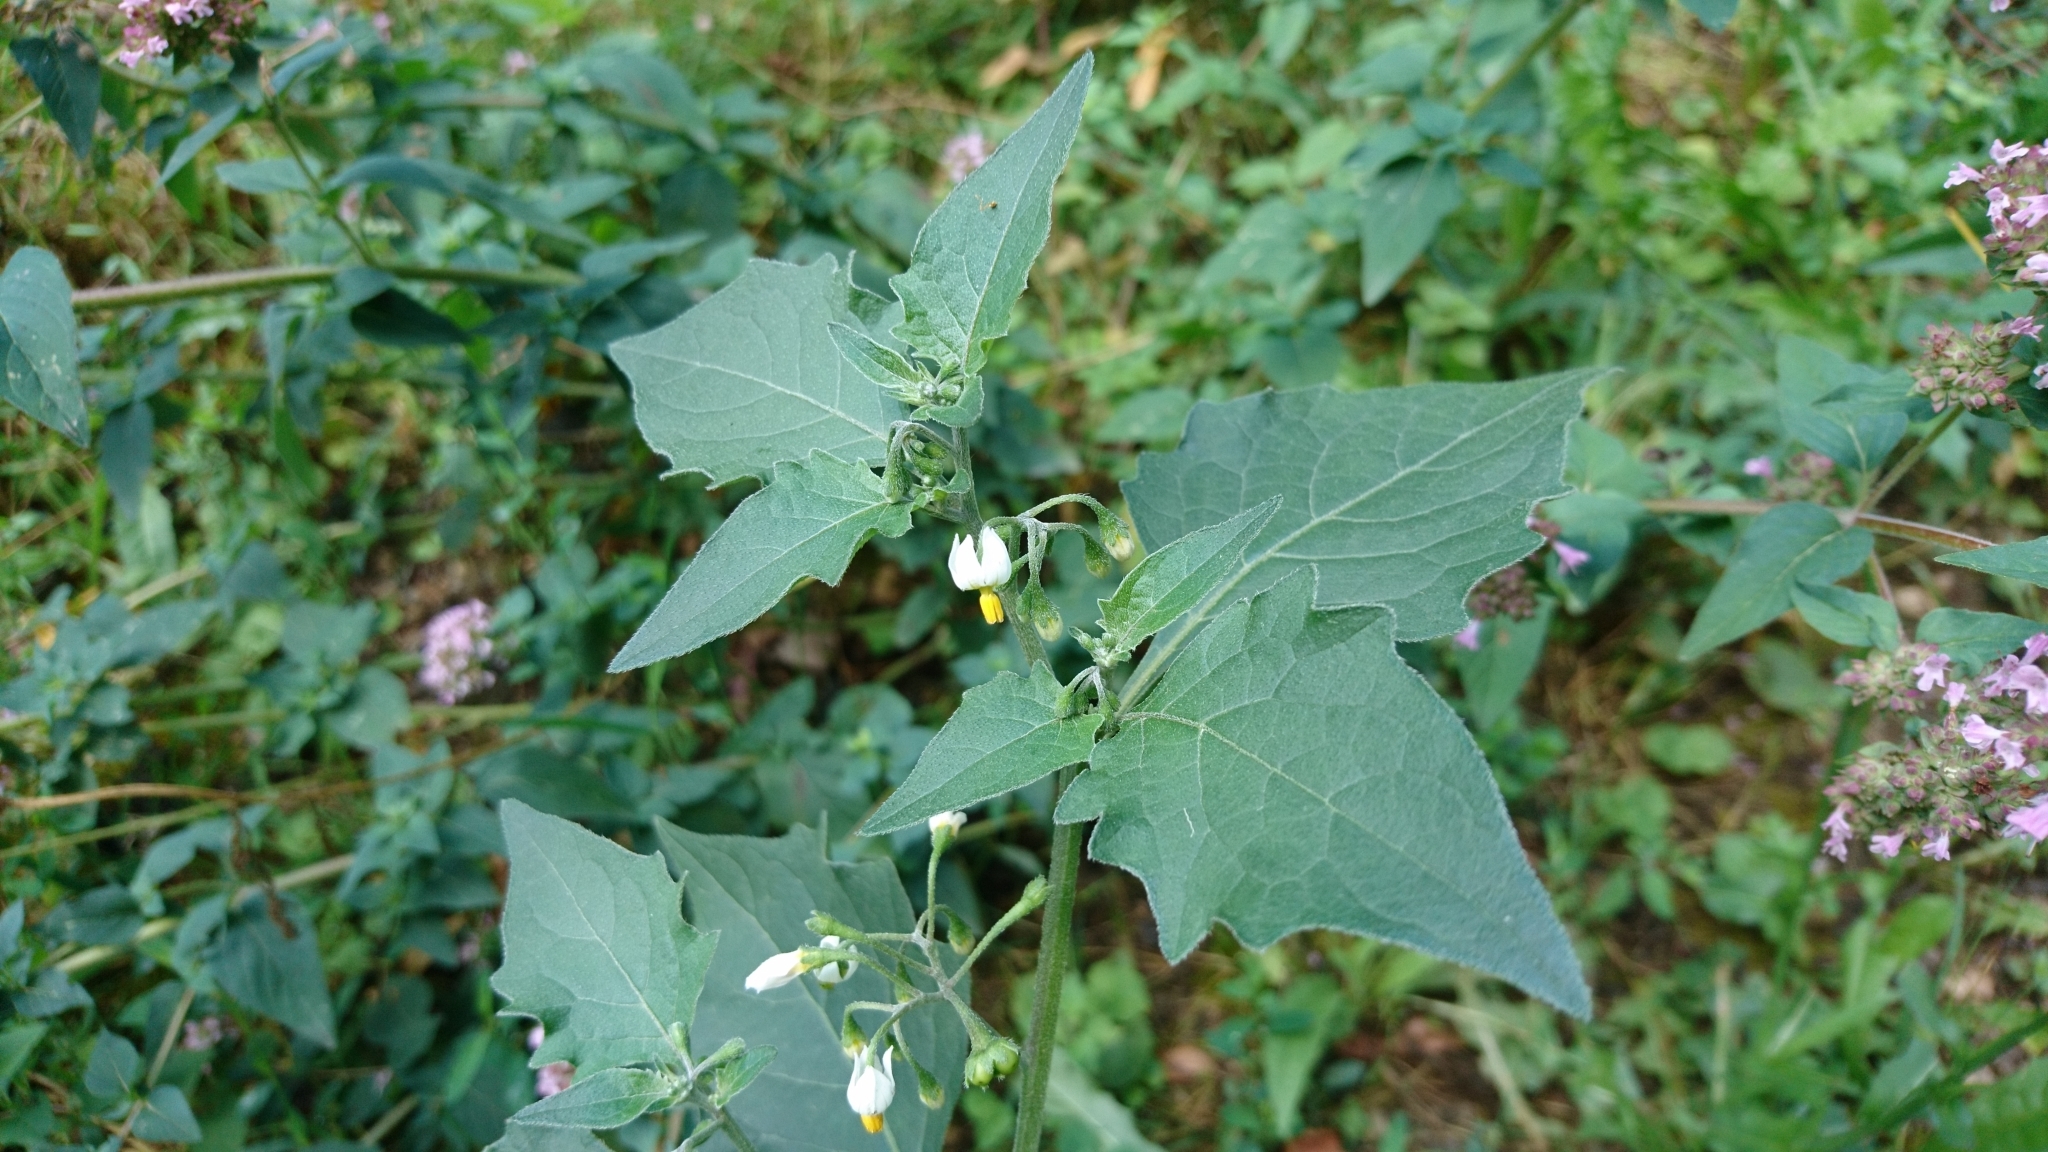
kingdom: Plantae
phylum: Tracheophyta
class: Magnoliopsida
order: Solanales
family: Solanaceae
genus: Solanum
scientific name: Solanum nigrum
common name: Black nightshade
